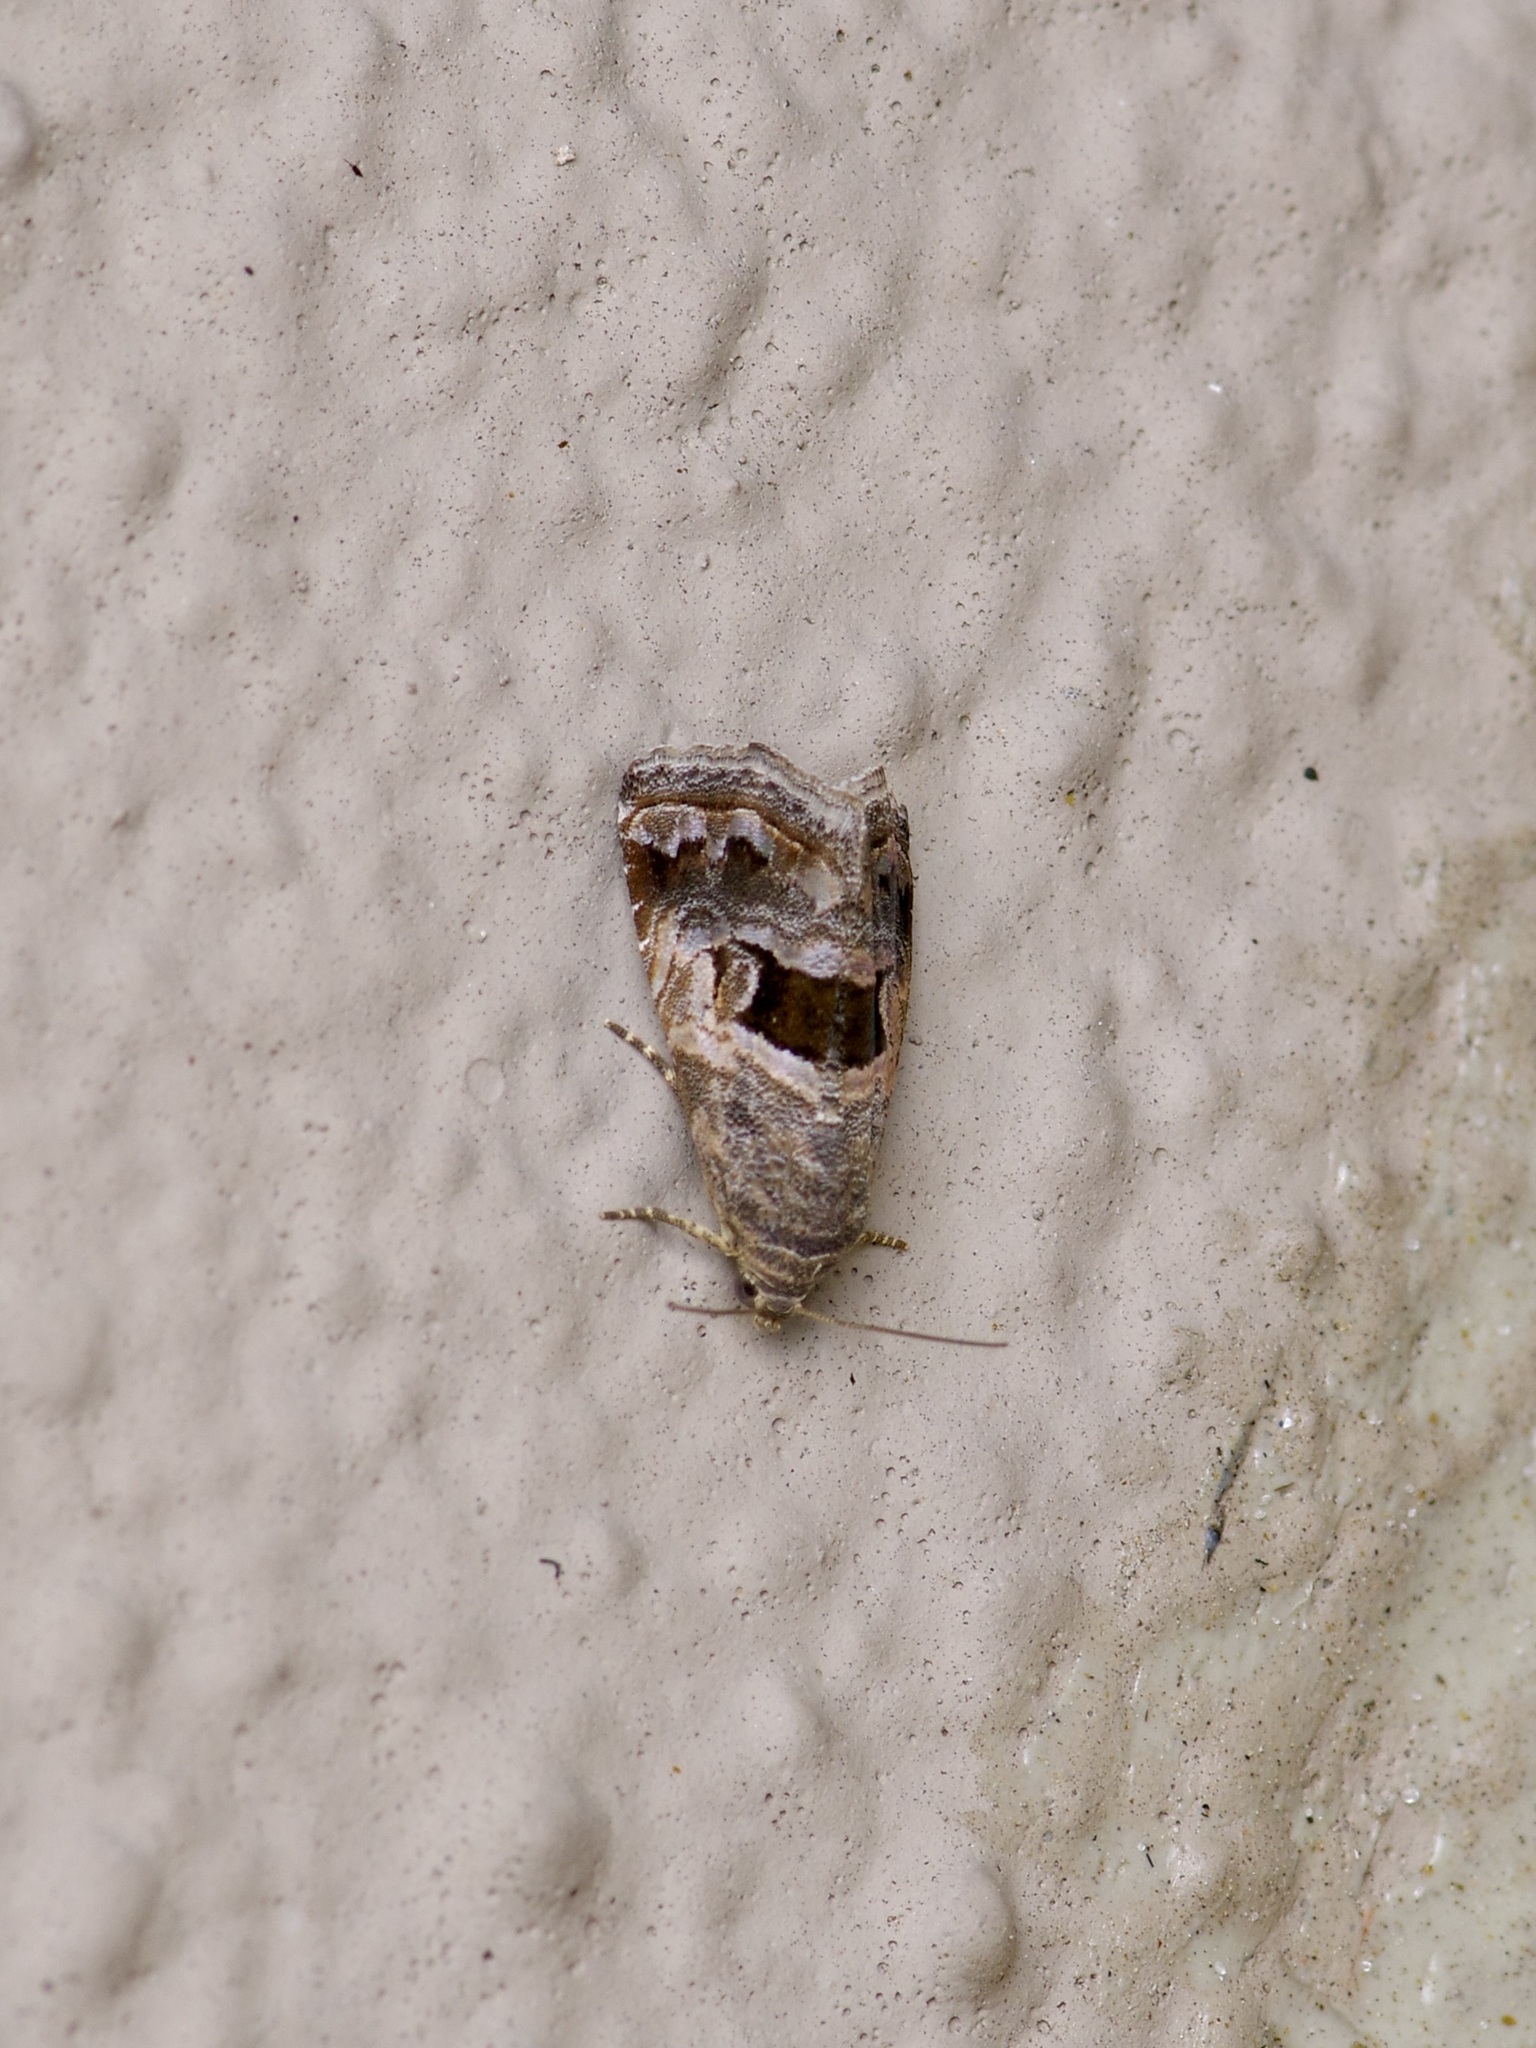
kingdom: Animalia
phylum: Arthropoda
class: Insecta
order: Lepidoptera
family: Noctuidae
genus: Tripudia
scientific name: Tripudia quadrifera
